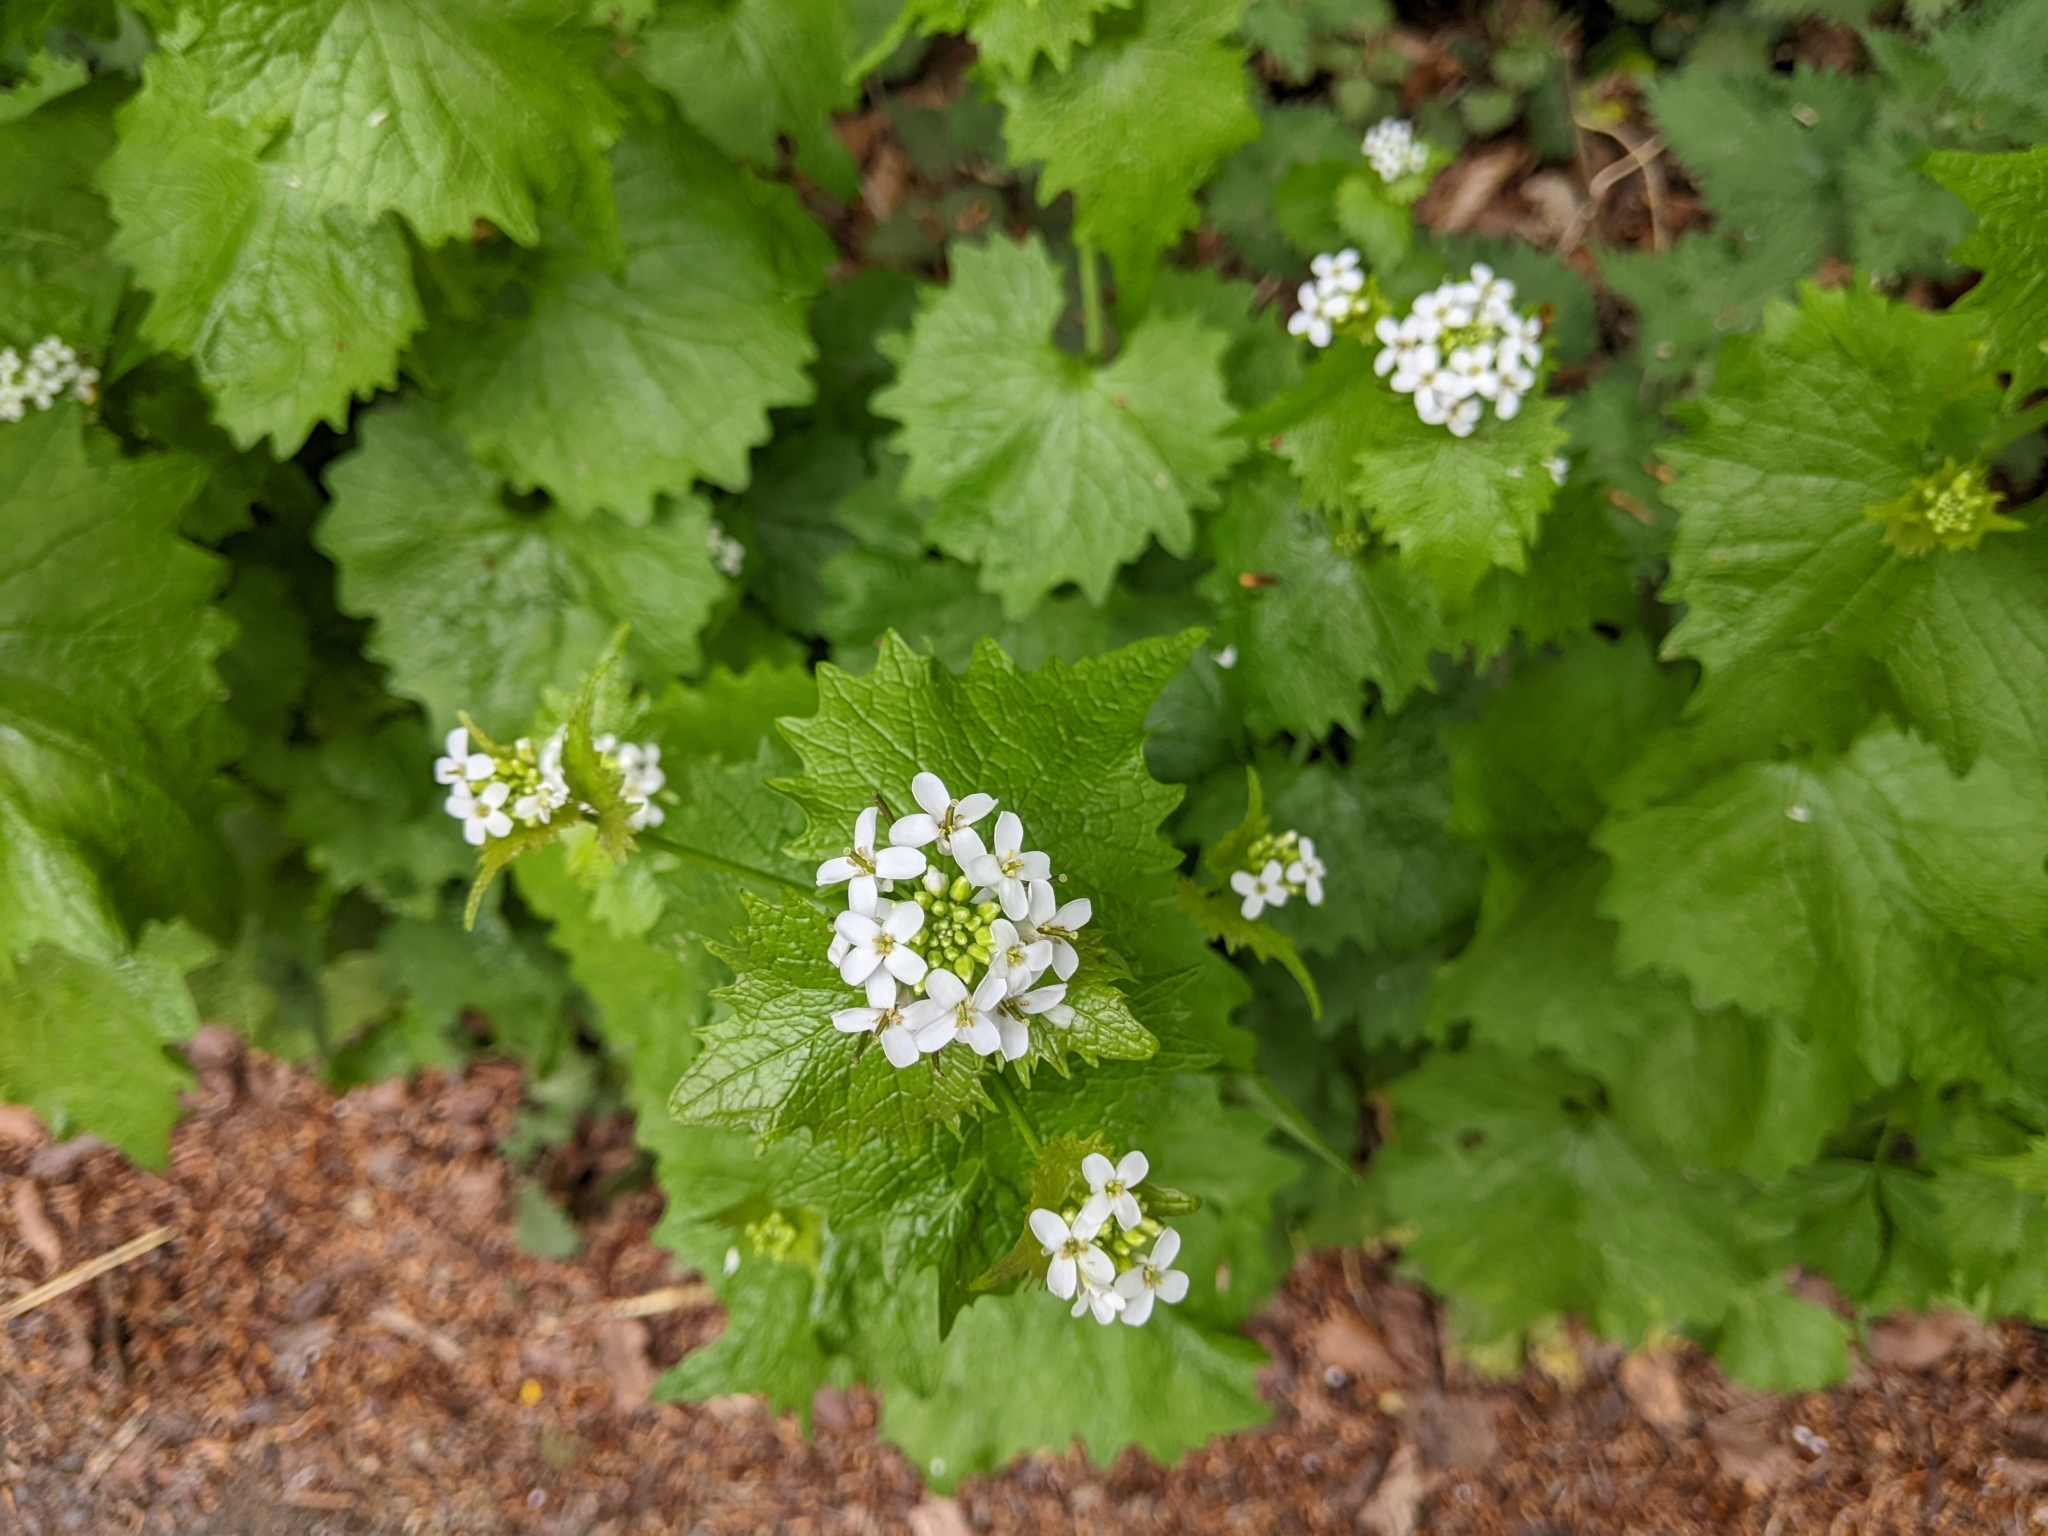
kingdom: Plantae
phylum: Tracheophyta
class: Magnoliopsida
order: Brassicales
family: Brassicaceae
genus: Alliaria
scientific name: Alliaria petiolata
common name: Garlic mustard
